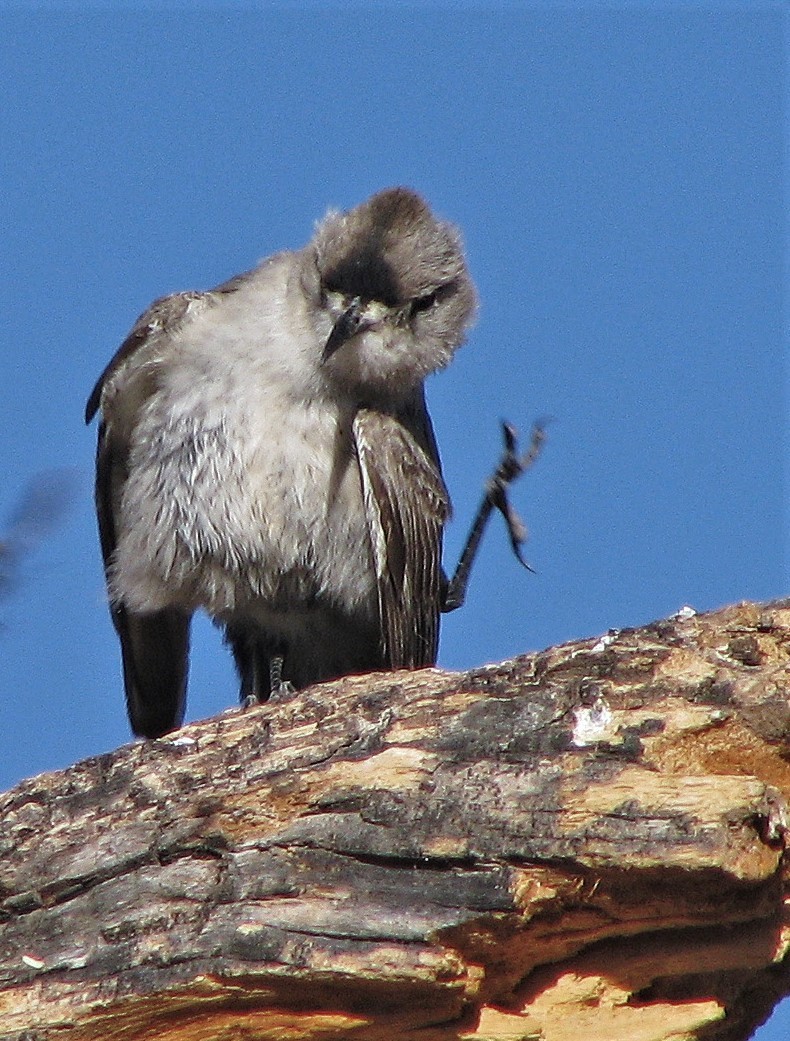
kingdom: Animalia
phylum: Chordata
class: Aves
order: Passeriformes
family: Tyrannidae
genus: Muscisaxicola
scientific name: Muscisaxicola frontalis
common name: Black-fronted ground tyrant
